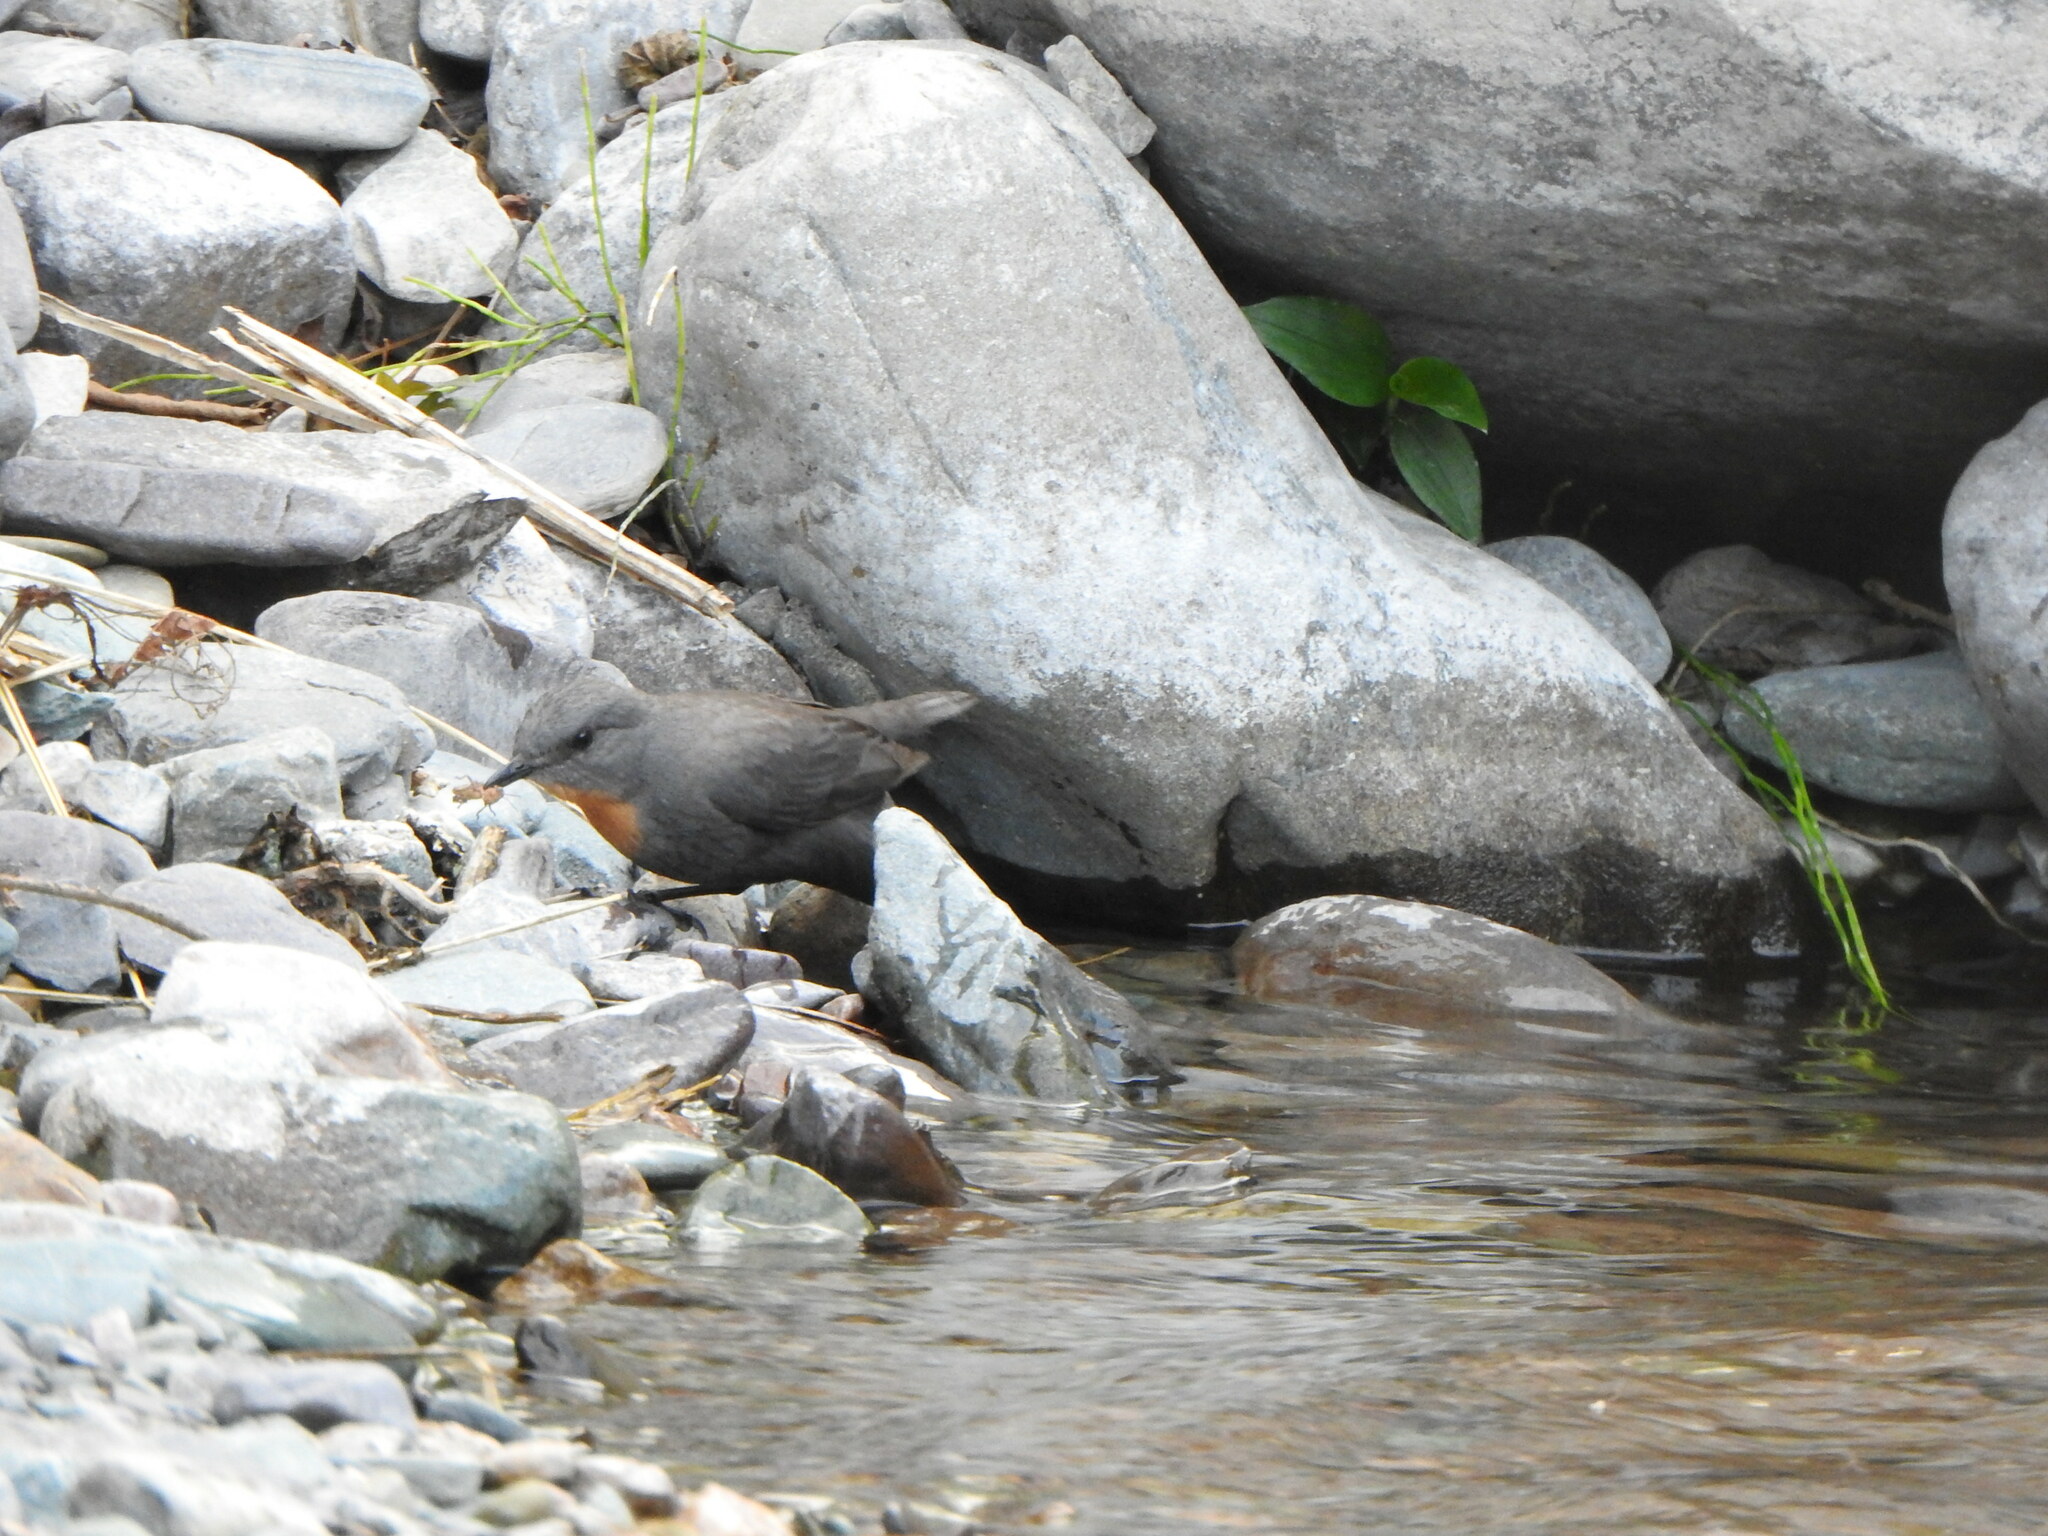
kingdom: Animalia
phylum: Chordata
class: Aves
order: Passeriformes
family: Cinclidae
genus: Cinclus
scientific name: Cinclus schulzii
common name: Rufous-throated dipper
